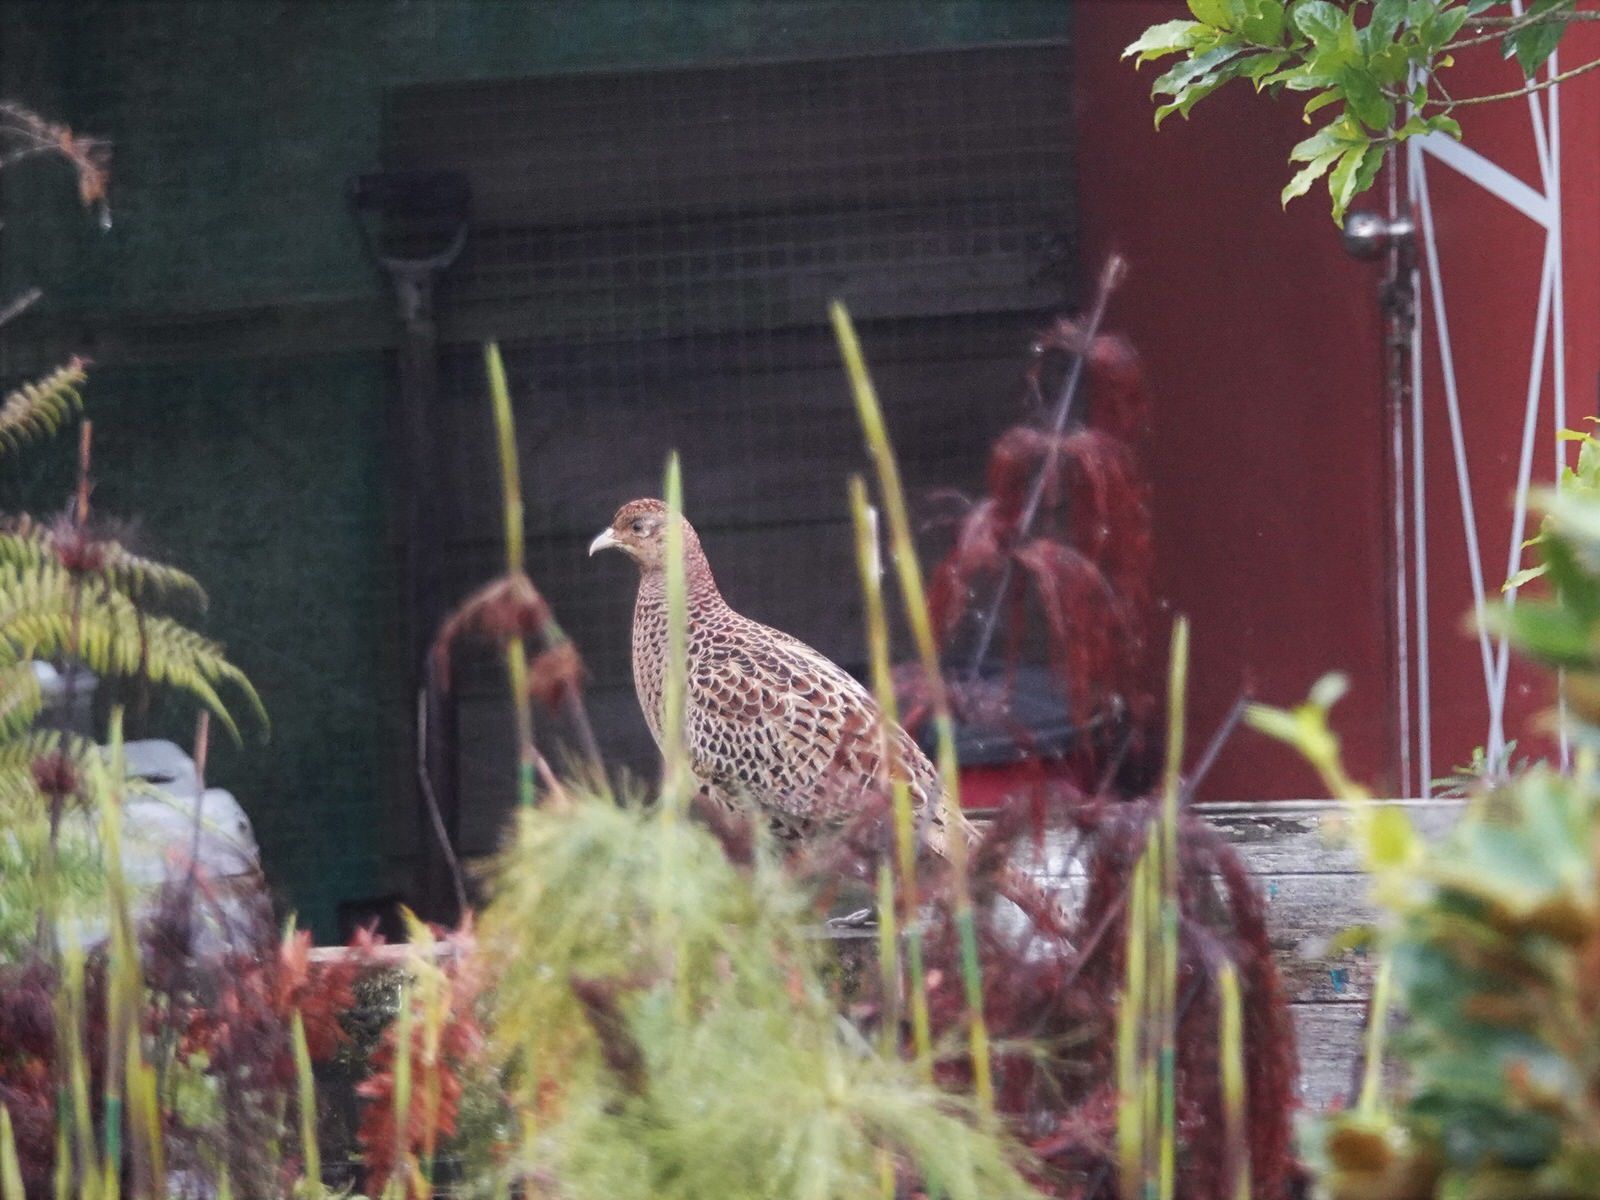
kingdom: Animalia
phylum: Chordata
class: Aves
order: Galliformes
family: Phasianidae
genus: Phasianus
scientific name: Phasianus colchicus
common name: Common pheasant
